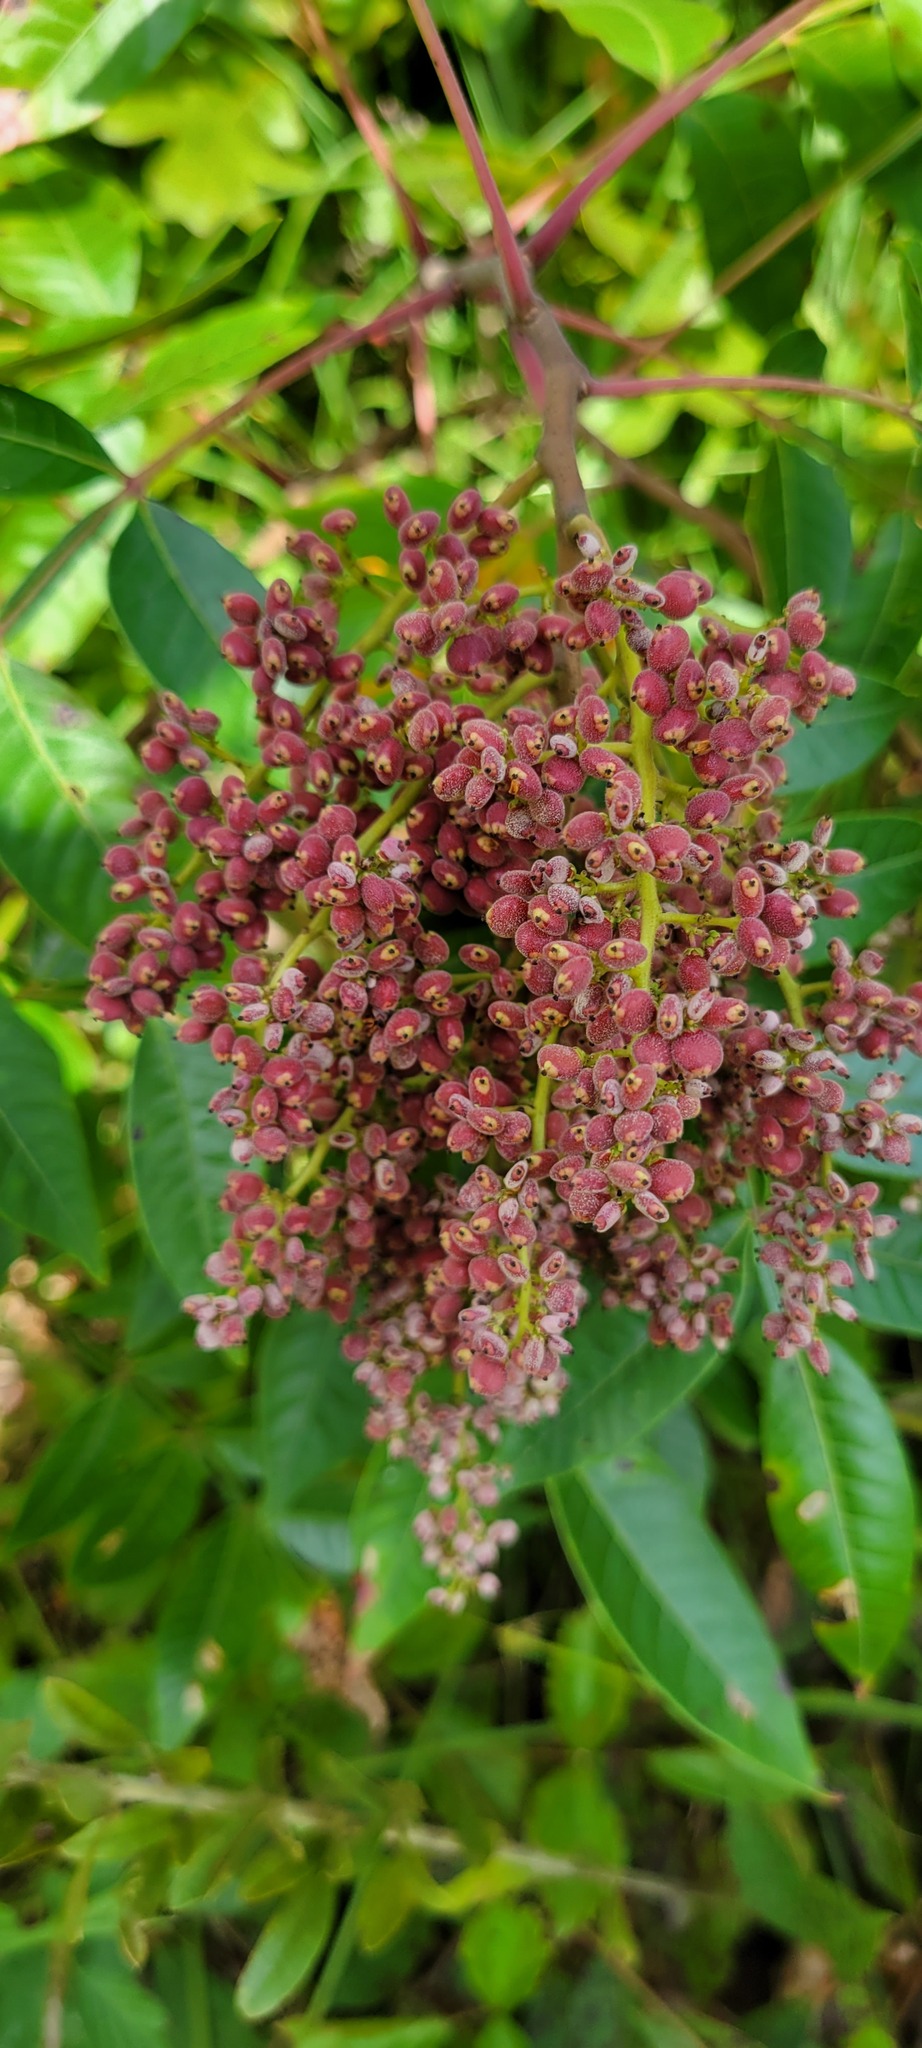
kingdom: Plantae
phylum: Tracheophyta
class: Magnoliopsida
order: Sapindales
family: Anacardiaceae
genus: Rhus
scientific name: Rhus copallina
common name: Shining sumac
